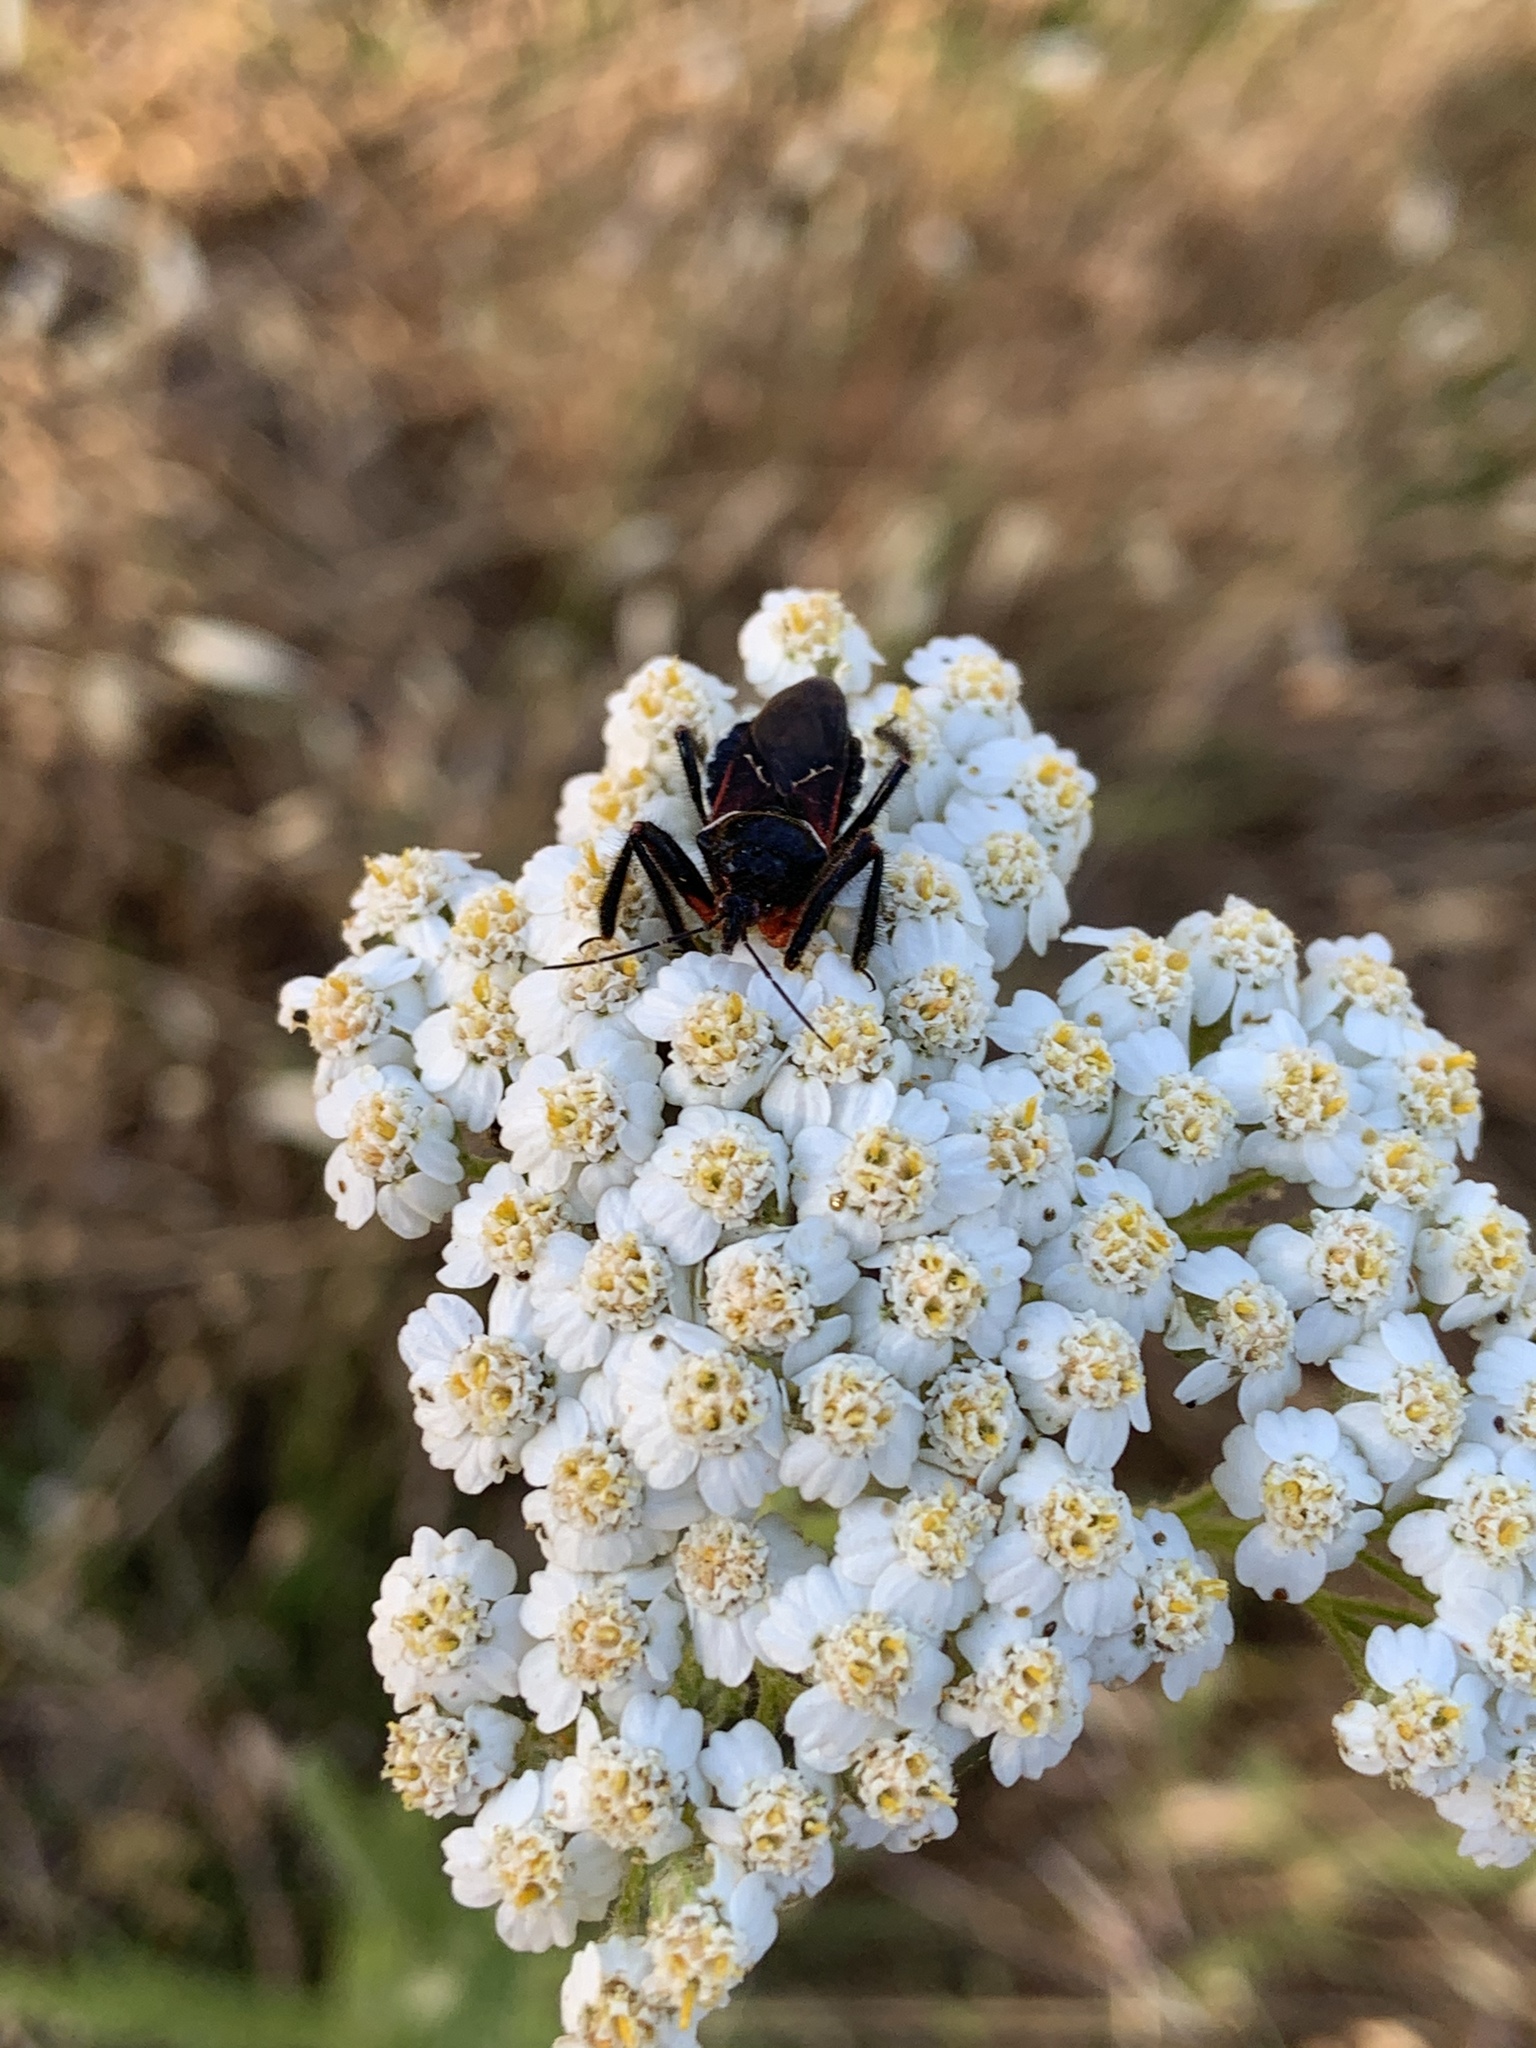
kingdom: Animalia
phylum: Arthropoda
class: Insecta
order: Hemiptera
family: Reduviidae
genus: Apiomerus
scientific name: Apiomerus californicus
